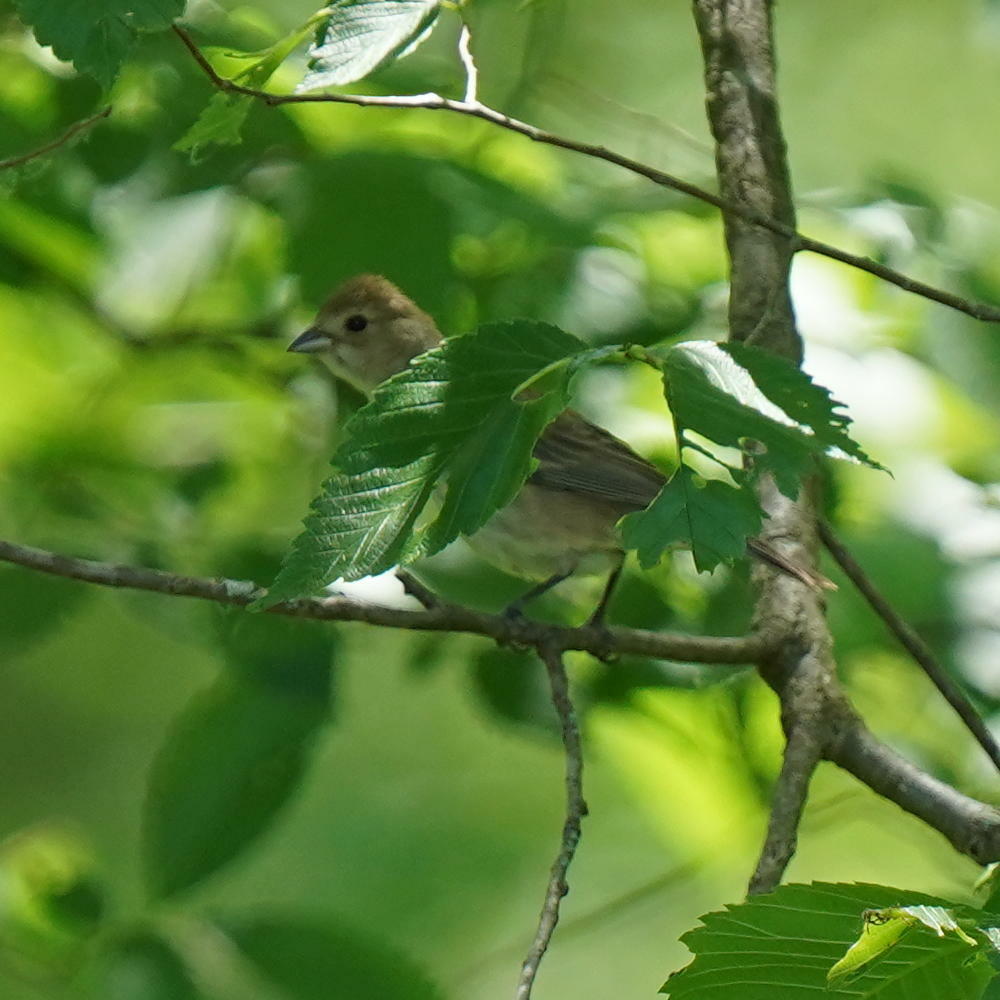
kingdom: Animalia
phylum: Chordata
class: Aves
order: Passeriformes
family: Cardinalidae
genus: Passerina
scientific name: Passerina cyanea
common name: Indigo bunting
